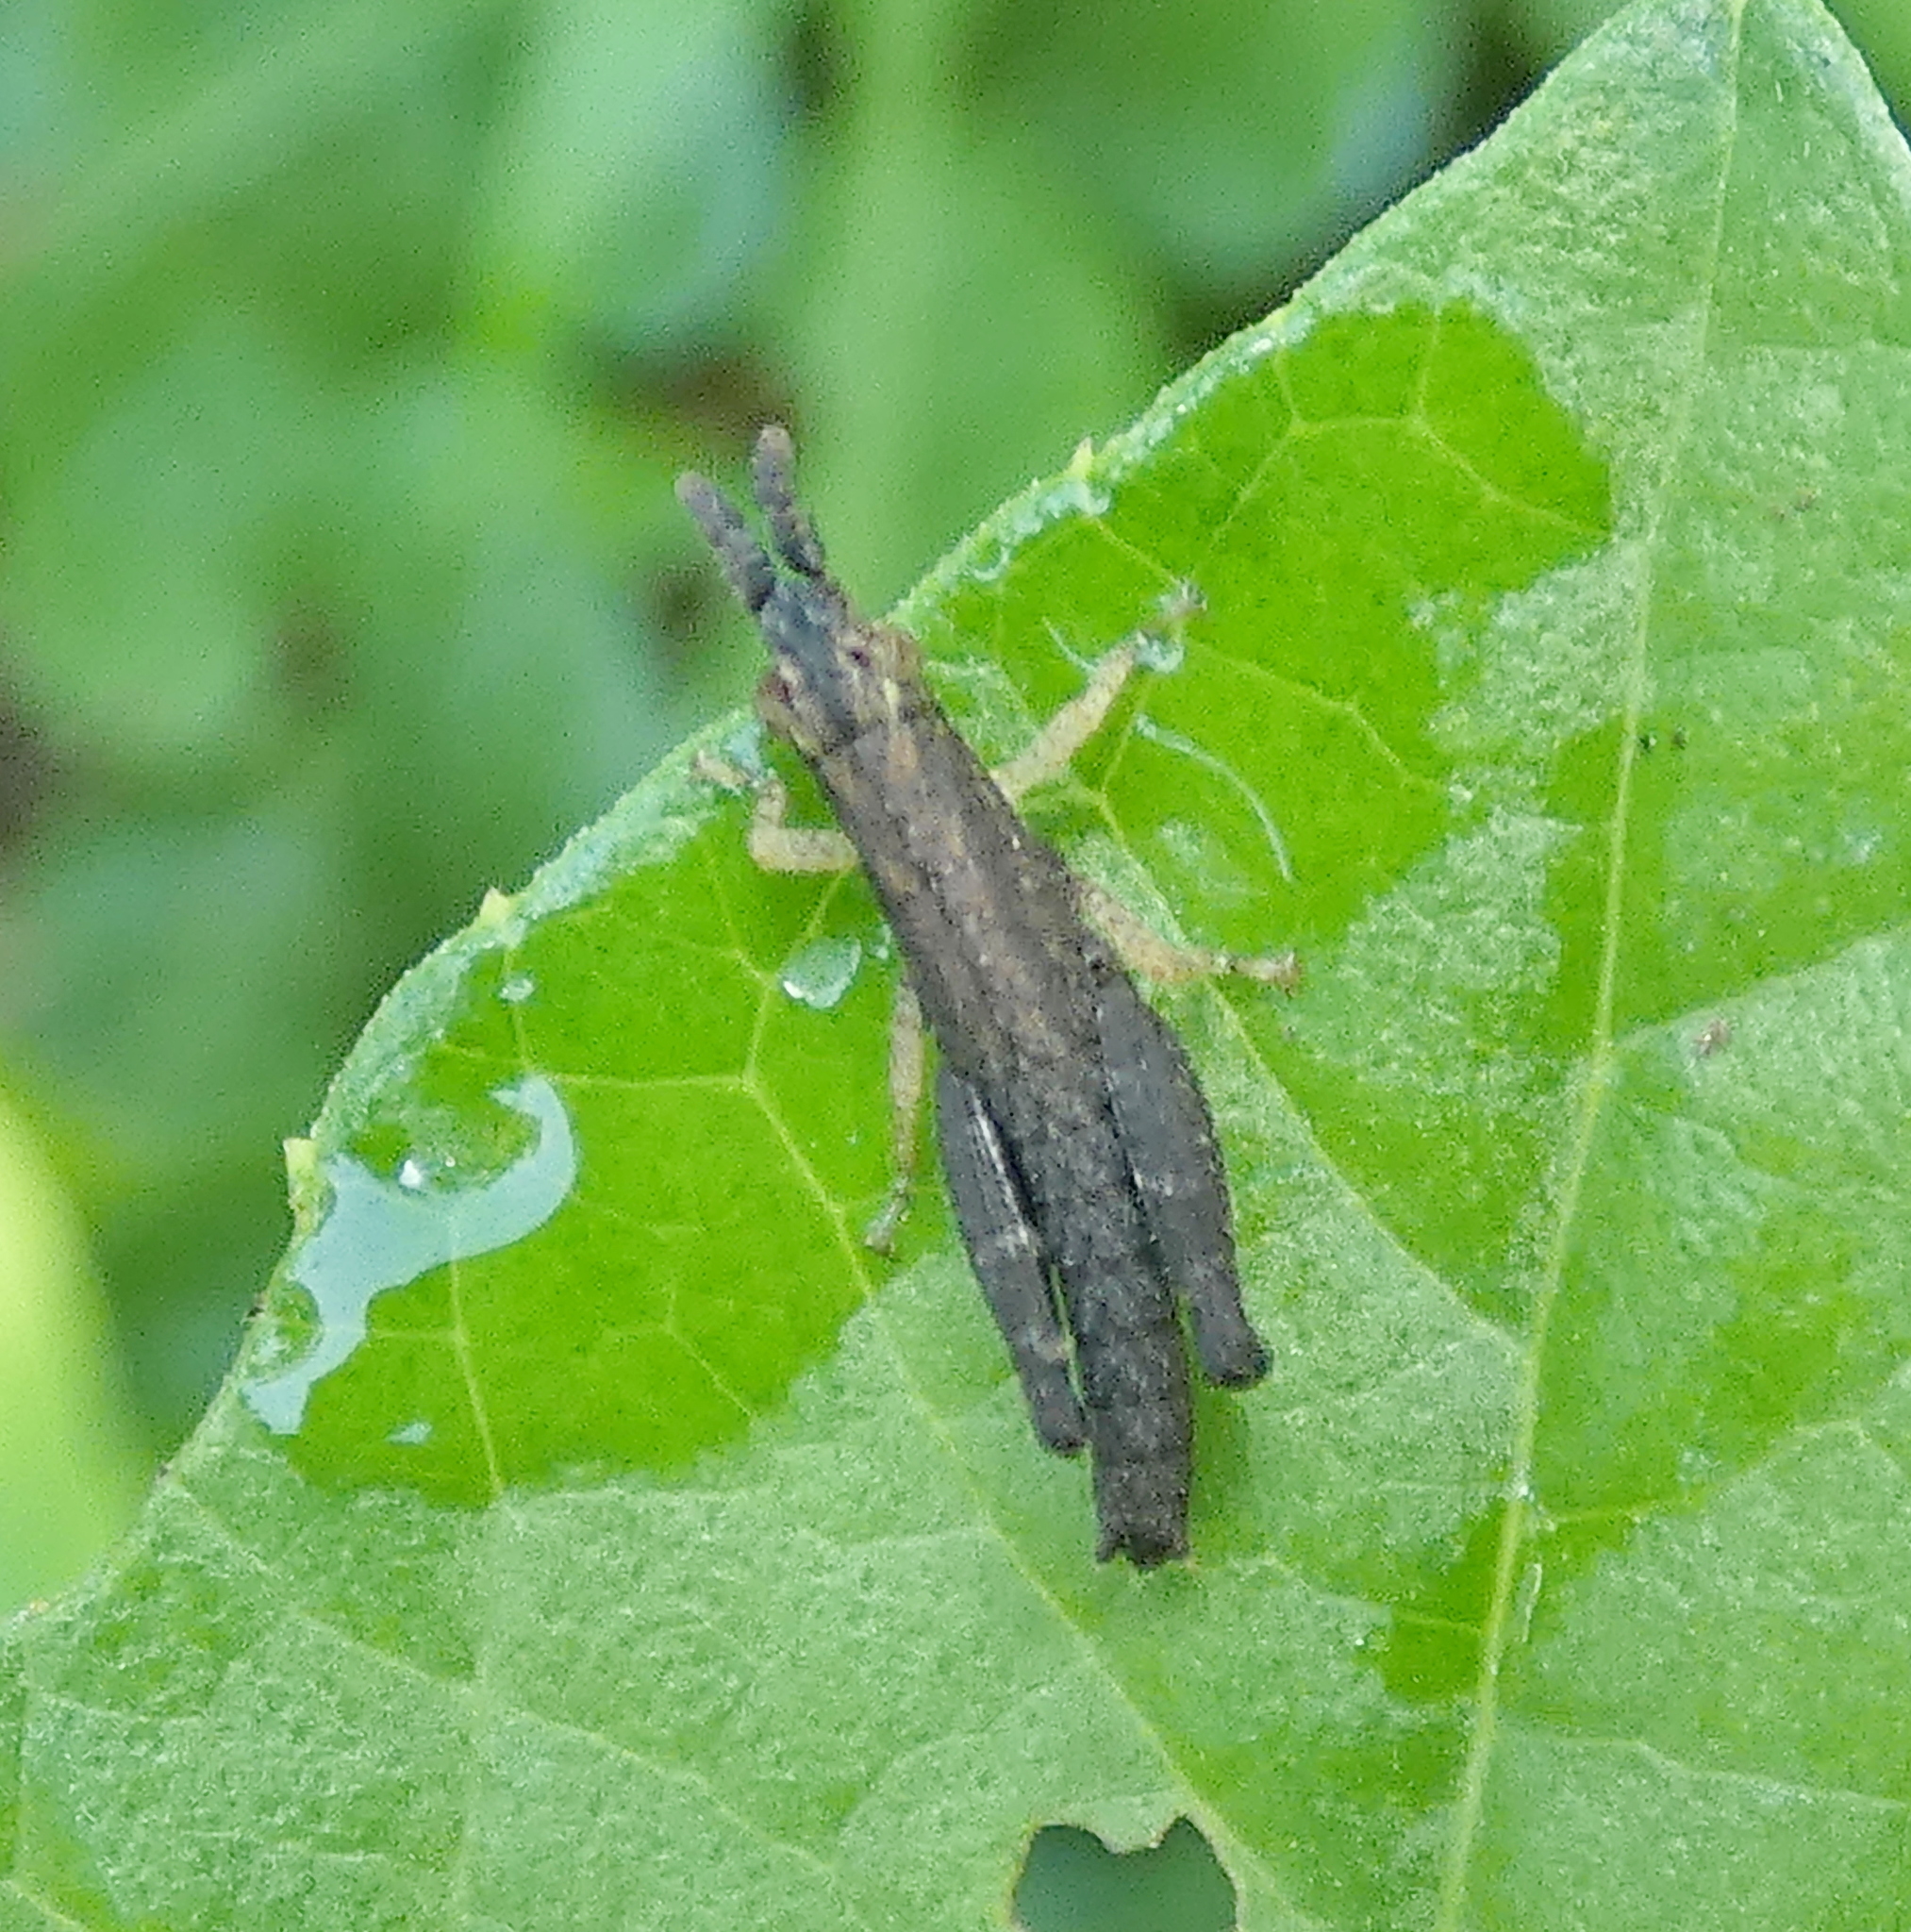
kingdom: Animalia
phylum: Arthropoda
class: Insecta
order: Orthoptera
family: Pyrgomorphidae
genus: Algete
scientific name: Algete brunneri
